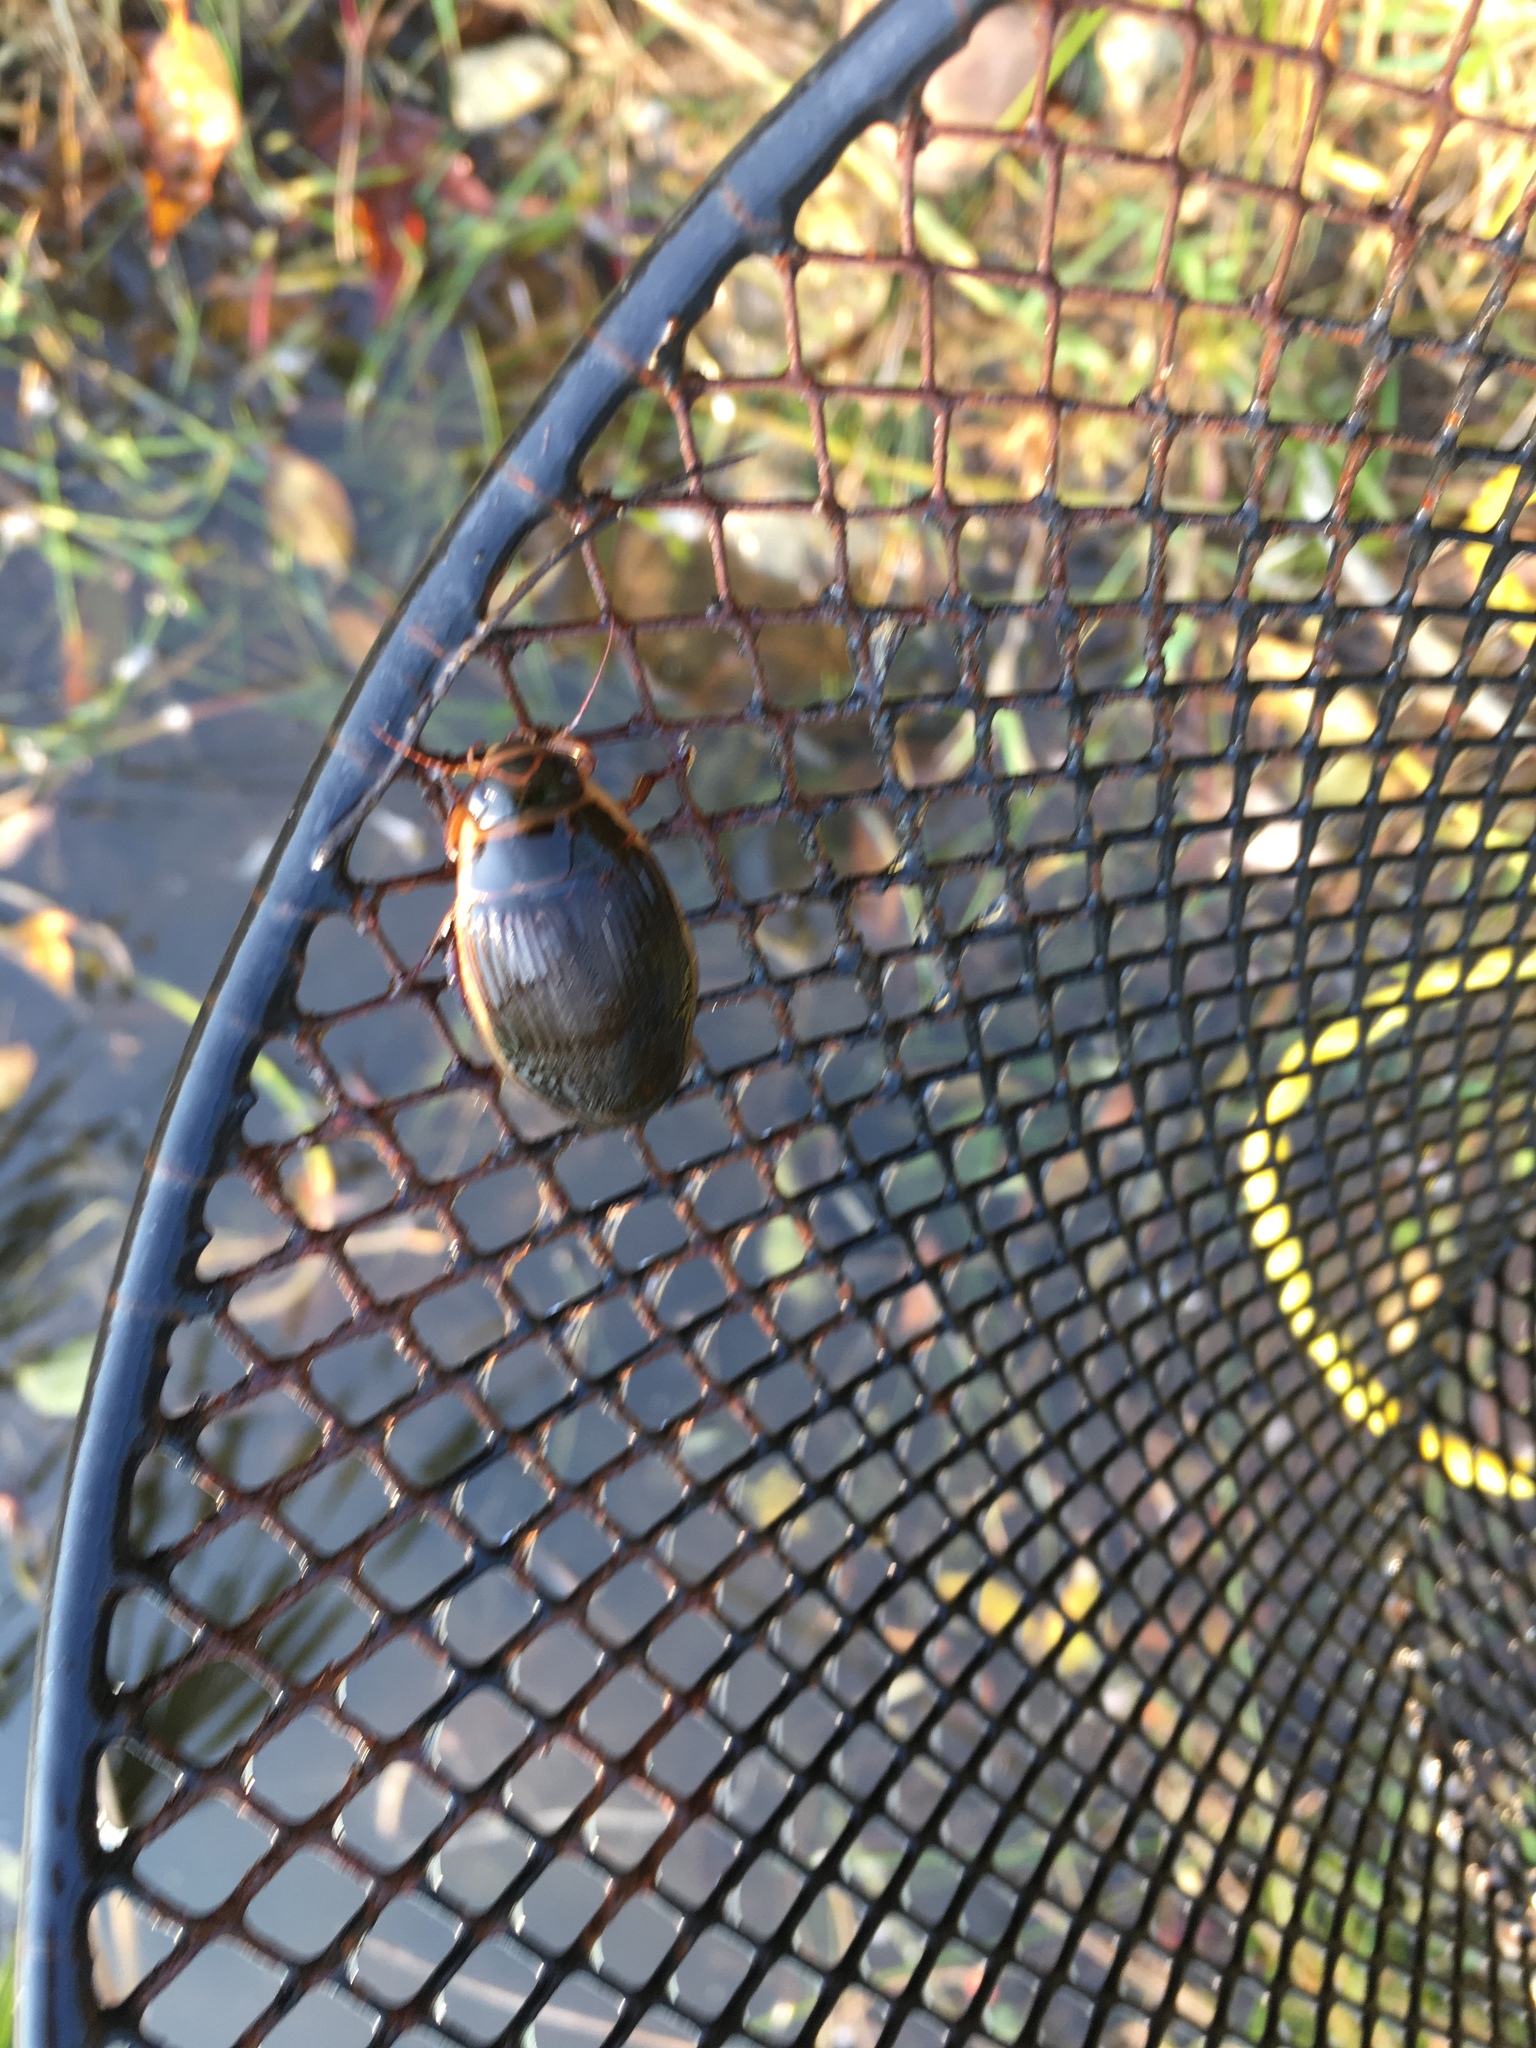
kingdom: Animalia
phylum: Arthropoda
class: Insecta
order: Coleoptera
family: Dytiscidae
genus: Dytiscus
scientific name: Dytiscus
